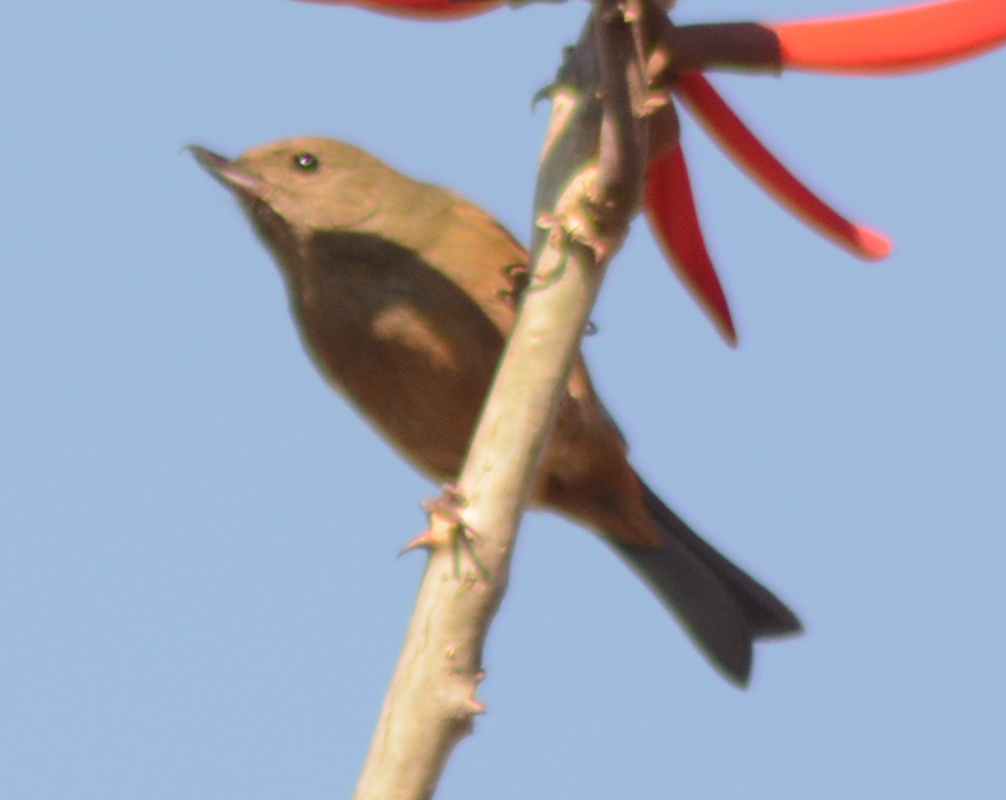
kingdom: Animalia
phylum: Chordata
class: Aves
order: Passeriformes
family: Thraupidae
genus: Diglossa
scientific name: Diglossa baritula
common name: Cinnamon-bellied flowerpiercer
